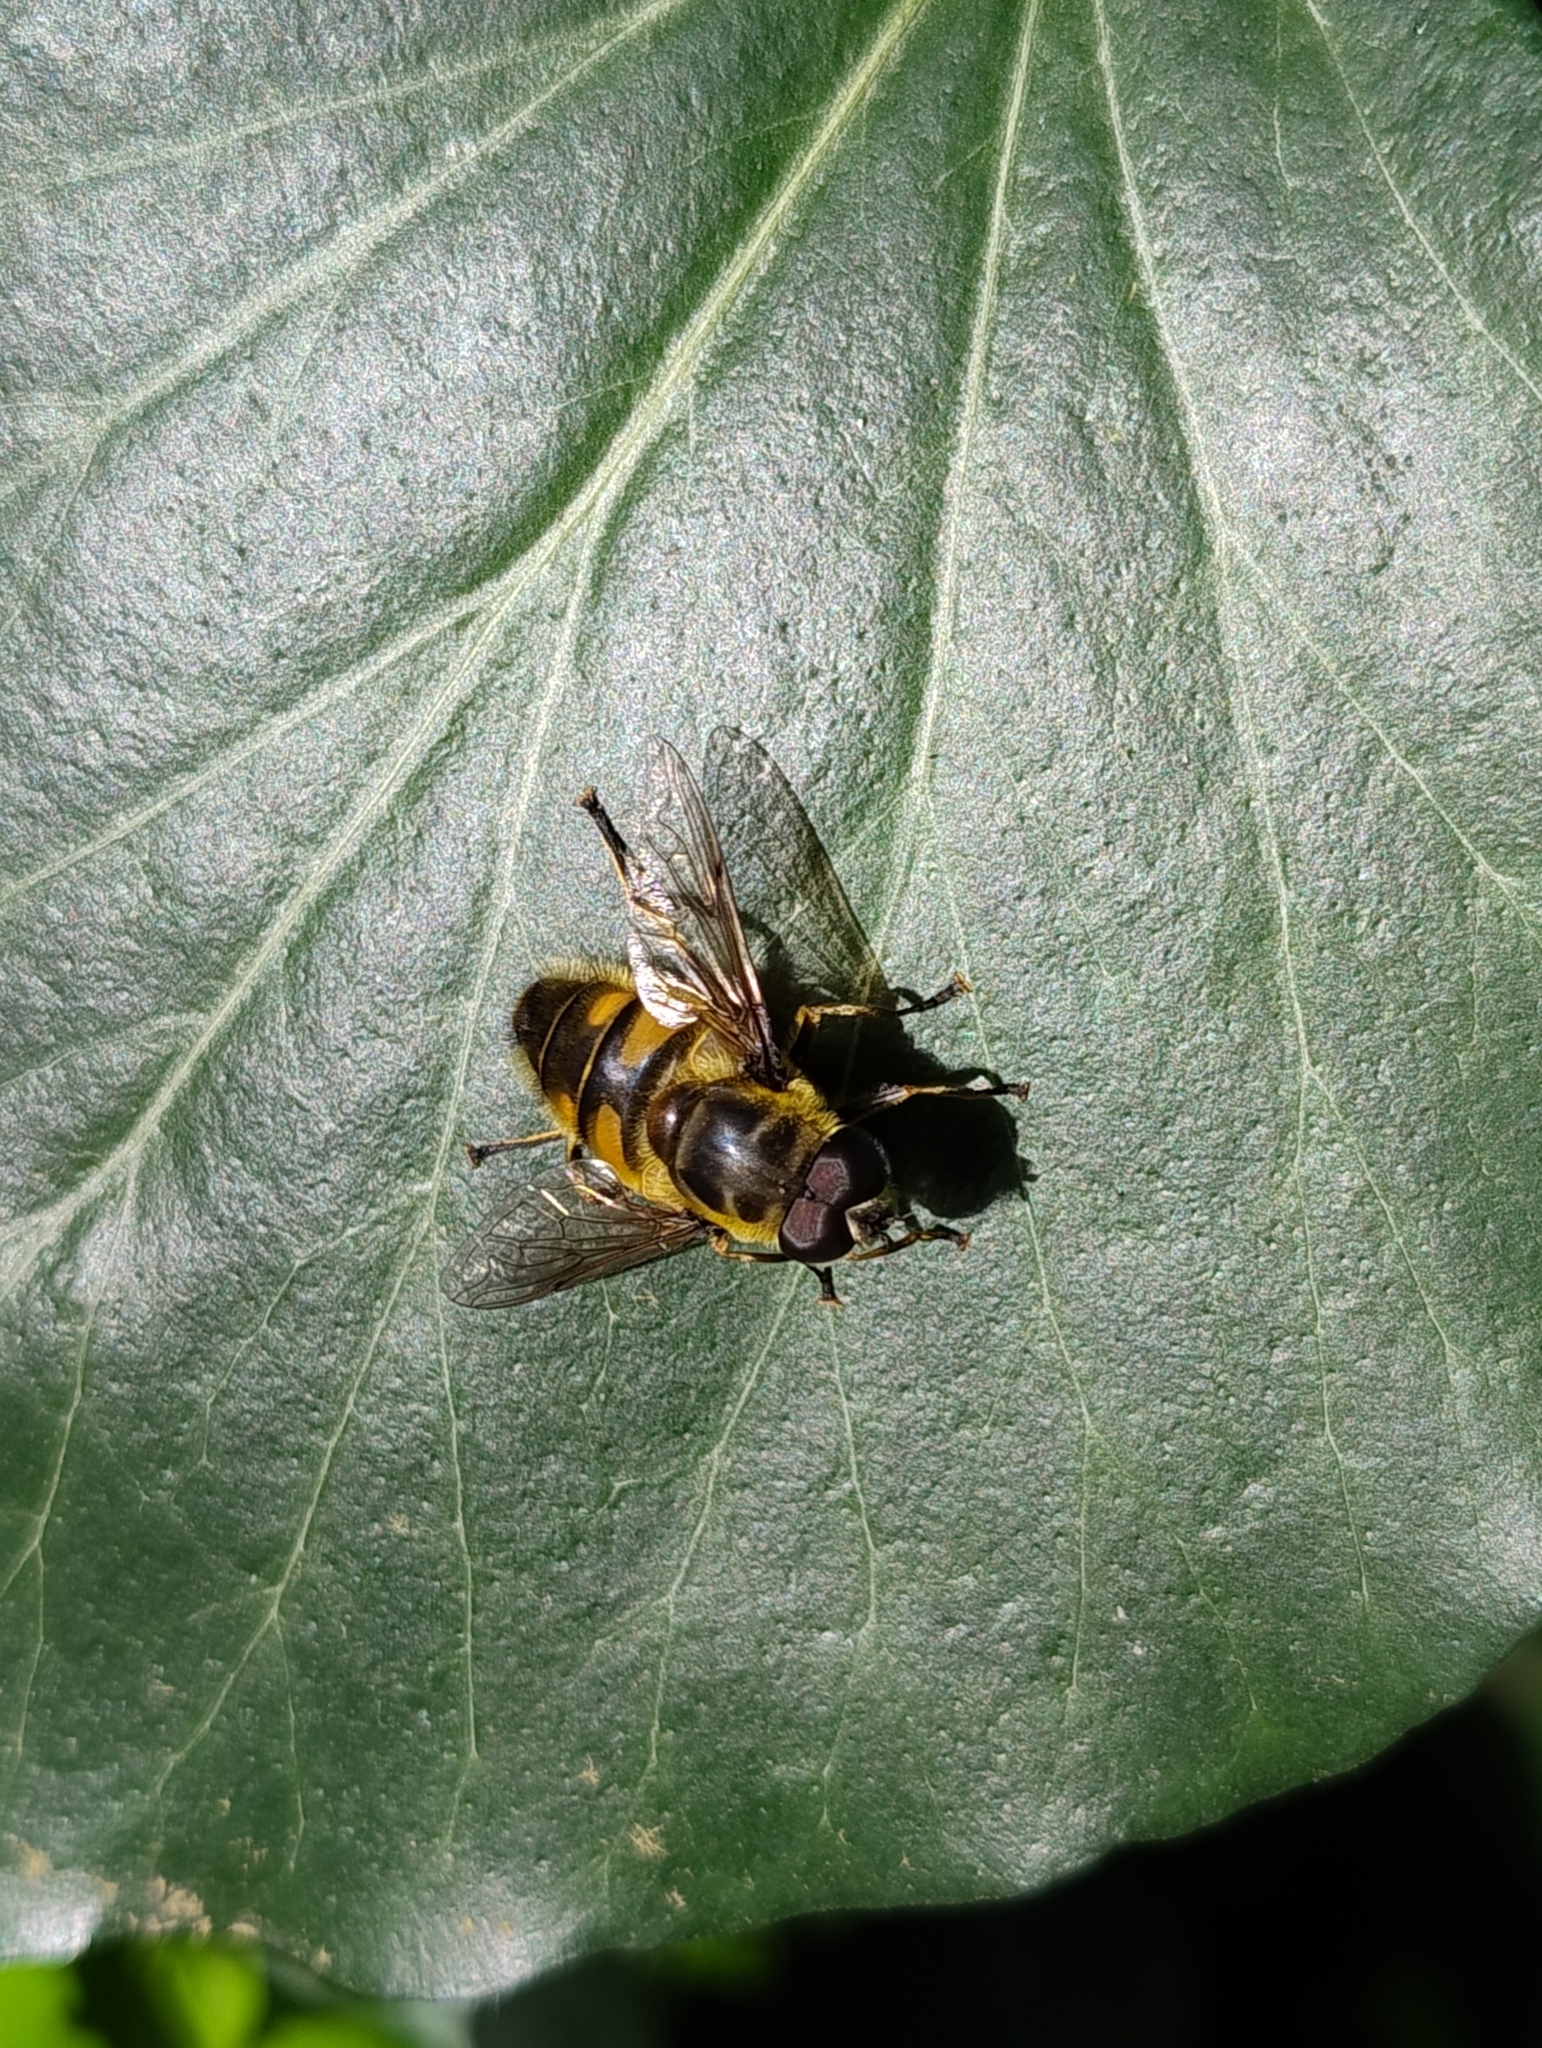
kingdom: Animalia
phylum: Arthropoda
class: Insecta
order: Diptera
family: Syrphidae
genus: Myathropa
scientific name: Myathropa florea
